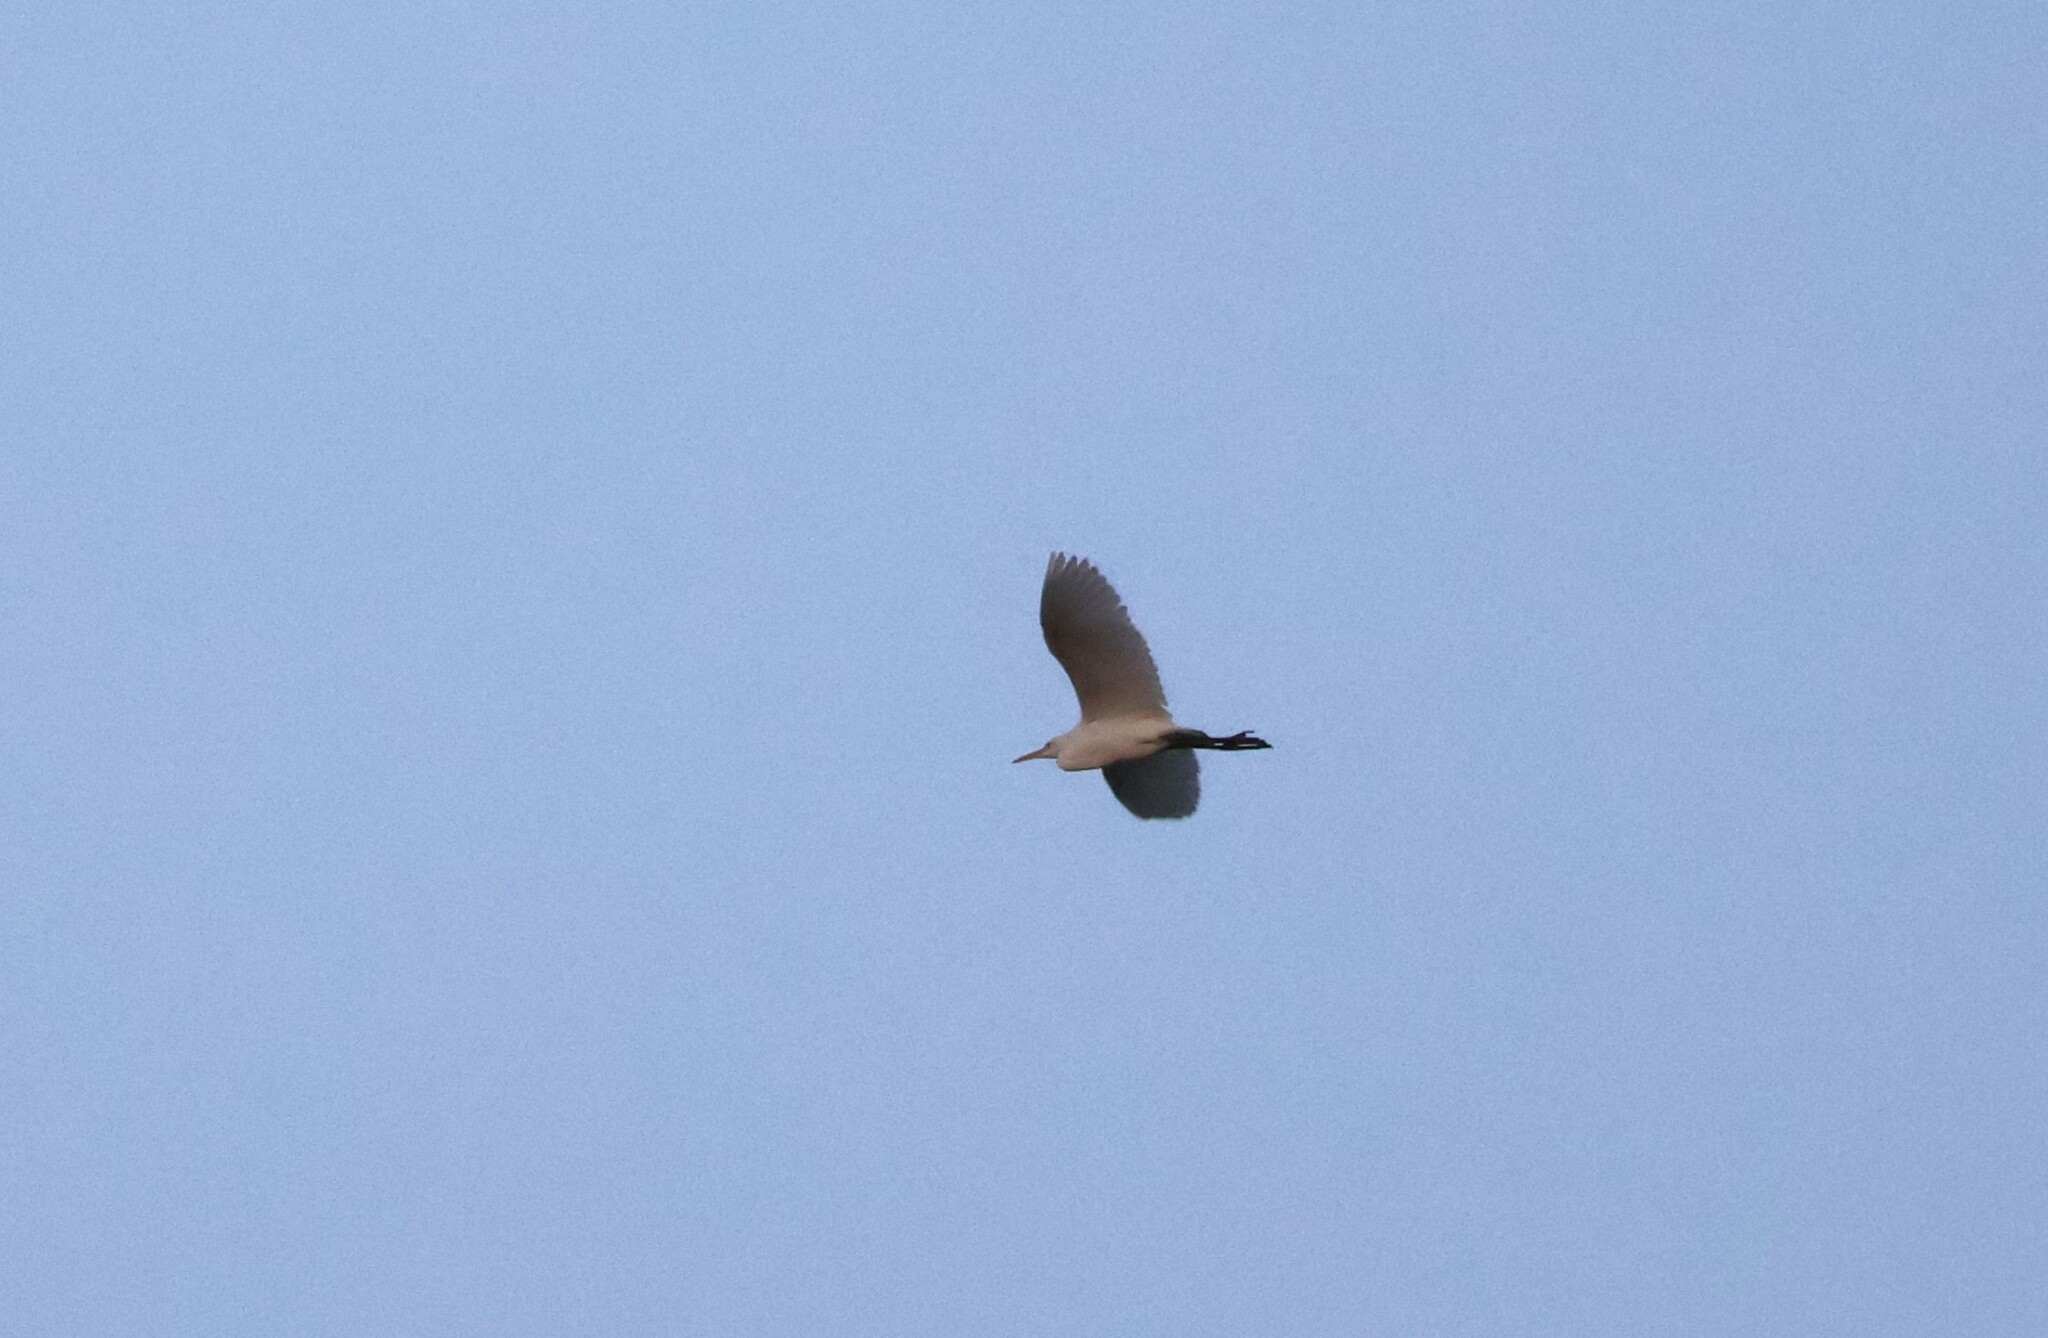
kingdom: Animalia
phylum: Chordata
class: Aves
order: Pelecaniformes
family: Ardeidae
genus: Bubulcus
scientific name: Bubulcus ibis
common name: Cattle egret
